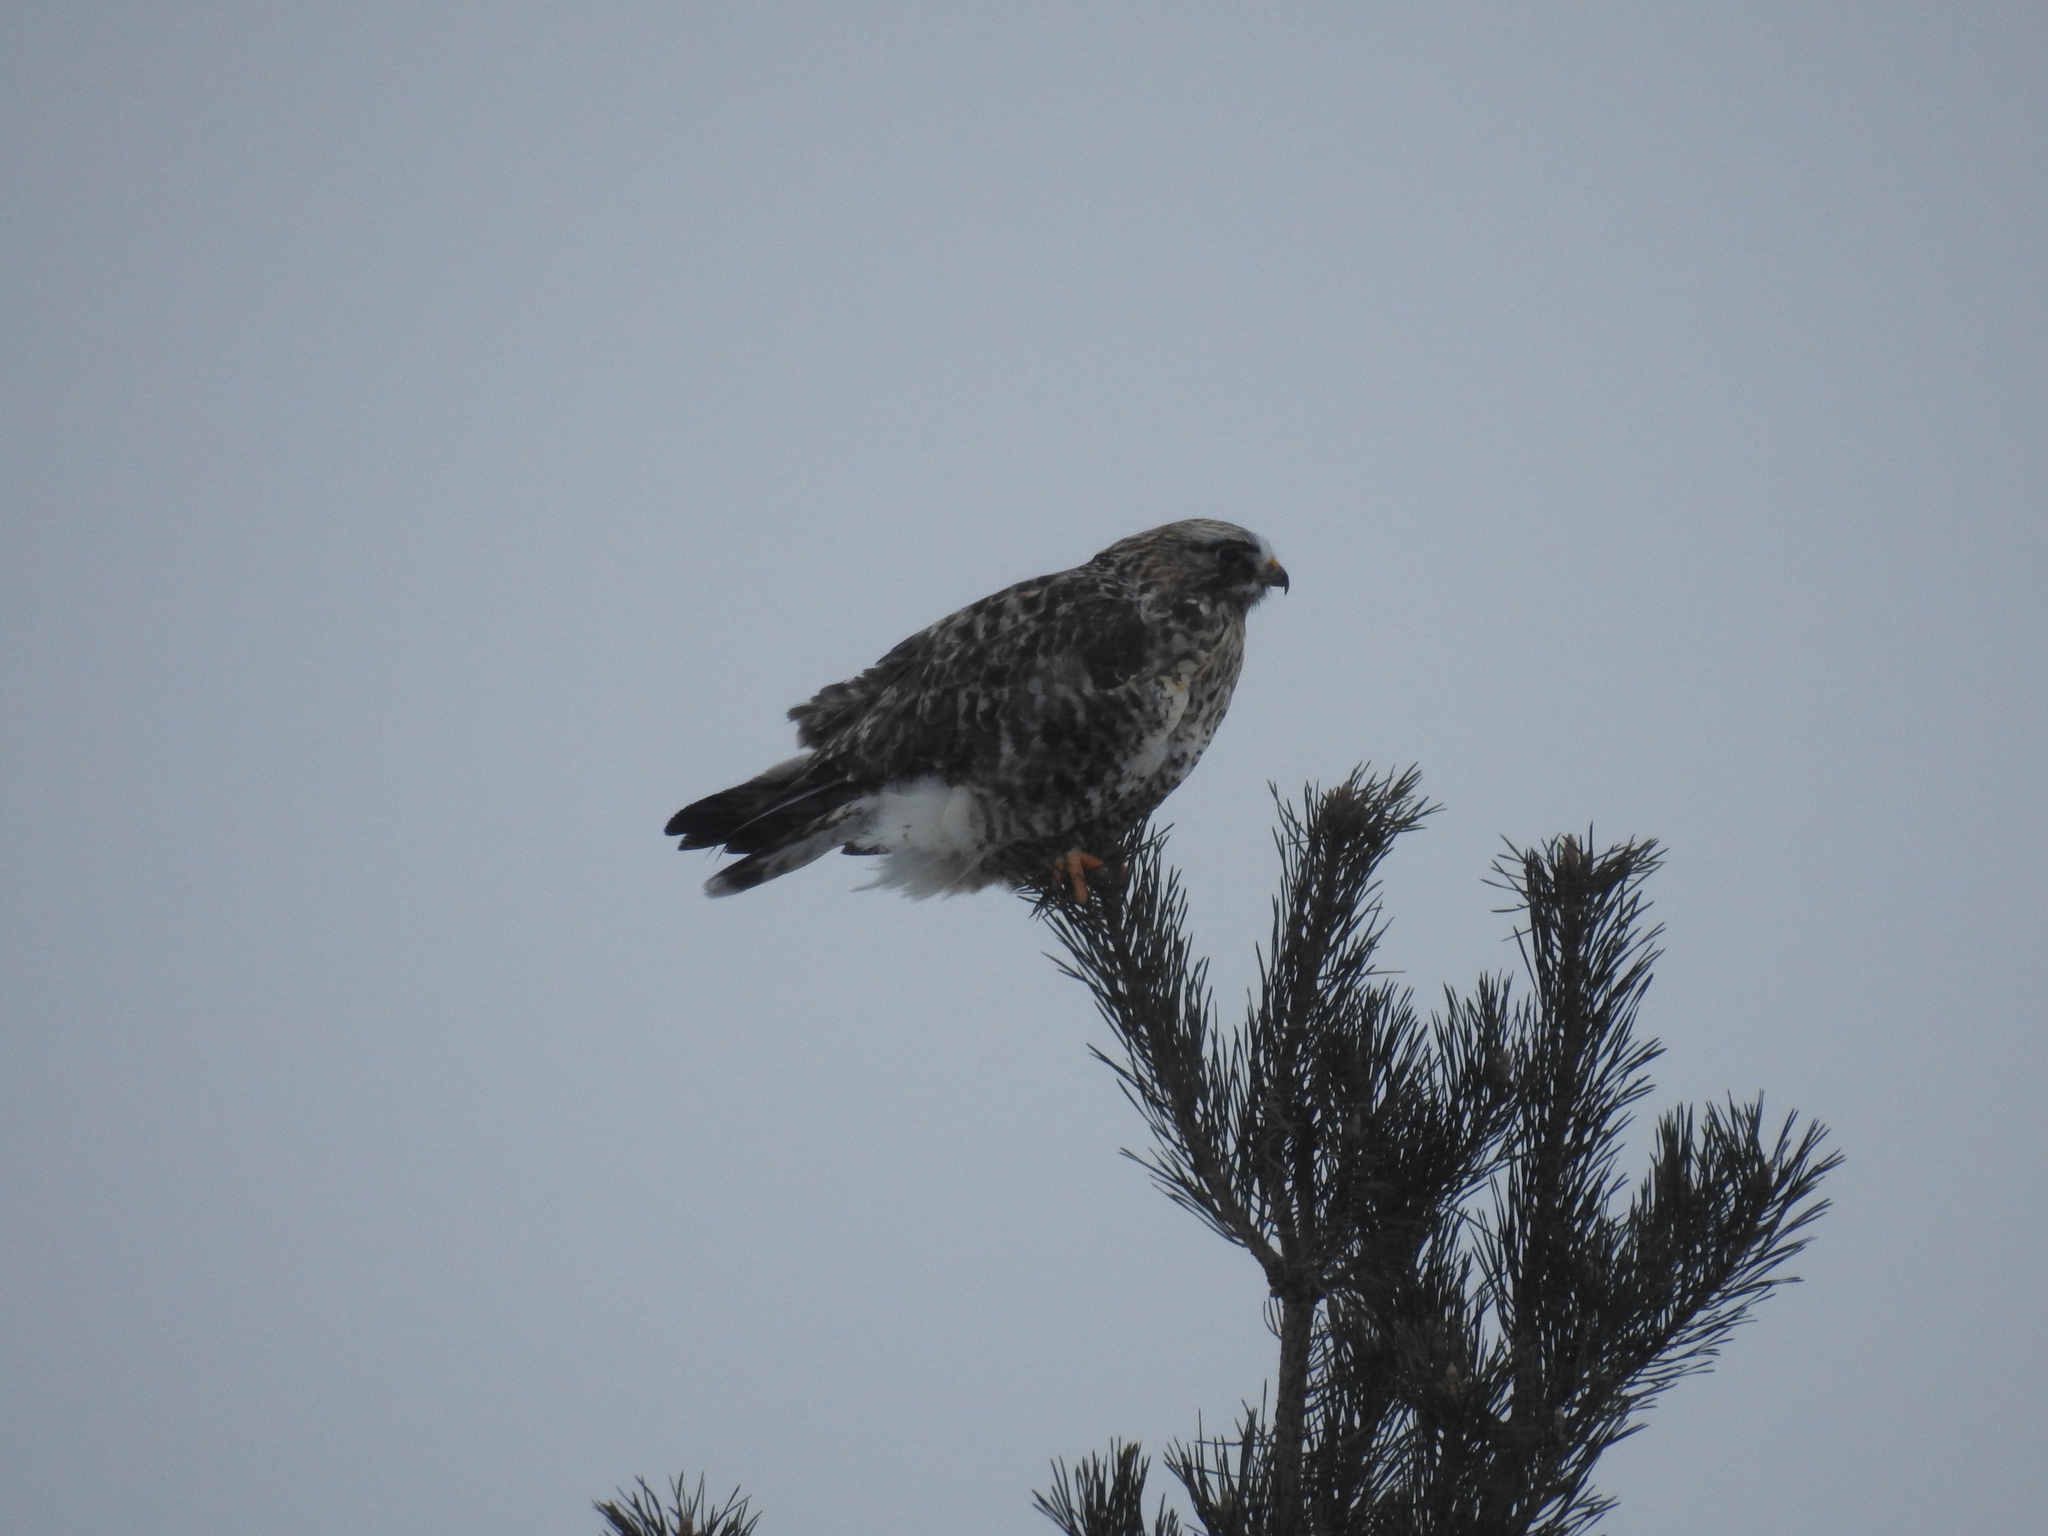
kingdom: Animalia
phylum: Chordata
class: Aves
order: Accipitriformes
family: Accipitridae
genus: Buteo
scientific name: Buteo lagopus
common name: Rough-legged buzzard
